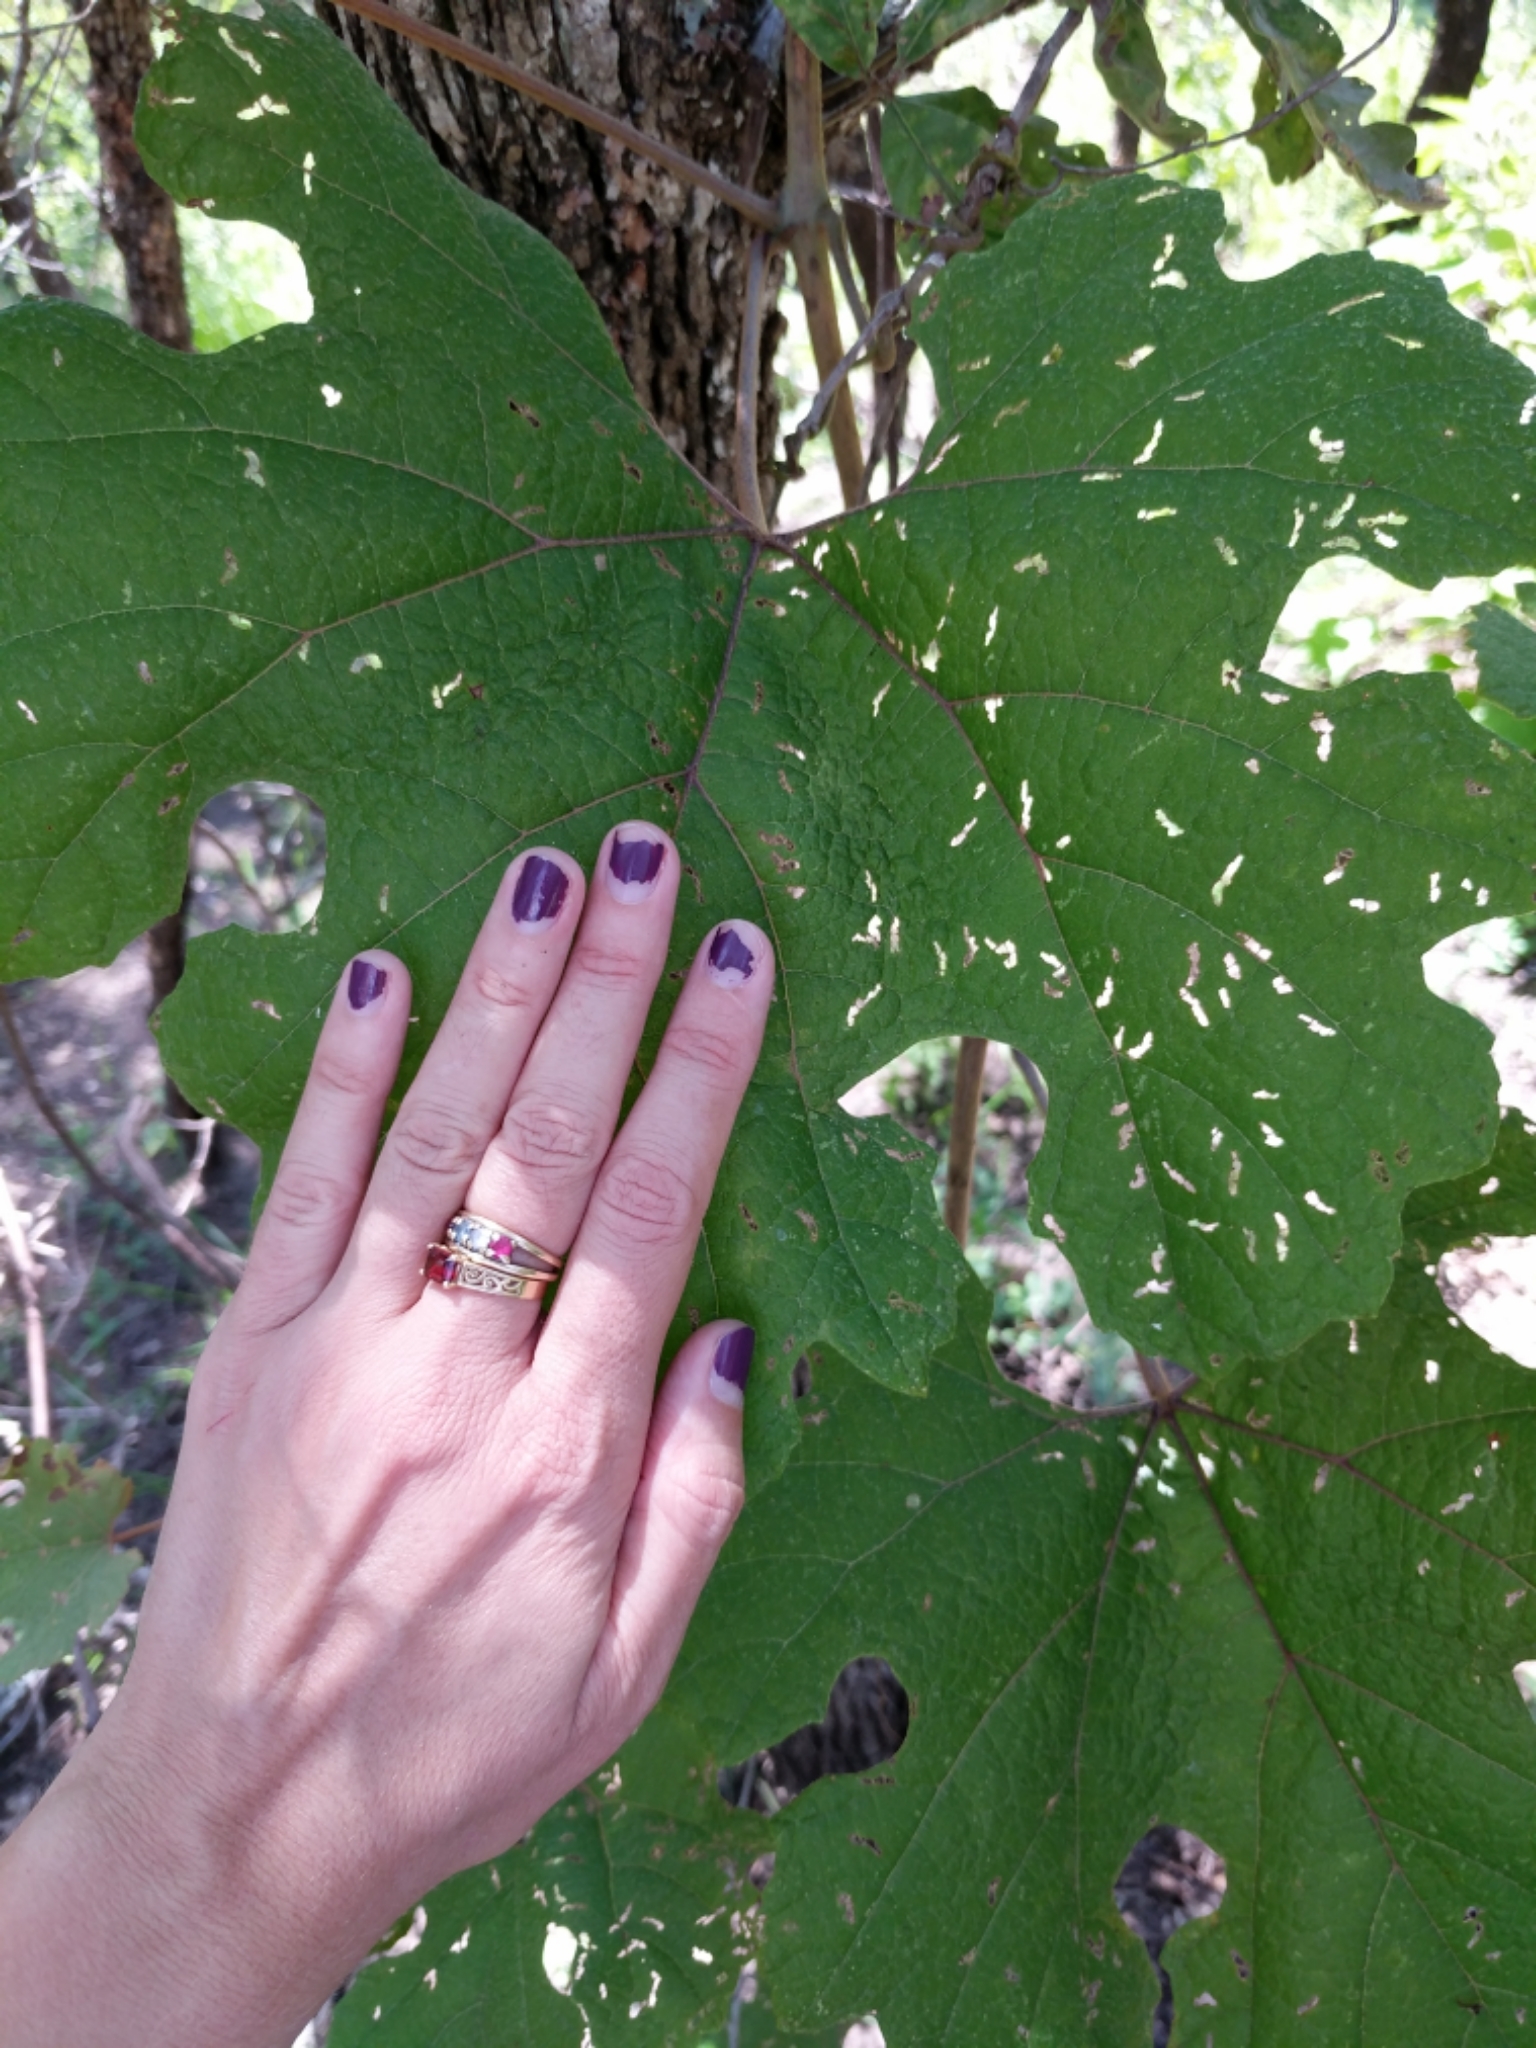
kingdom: Plantae
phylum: Tracheophyta
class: Magnoliopsida
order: Vitales
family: Vitaceae
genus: Vitis
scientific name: Vitis aestivalis
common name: Pigeon grape
